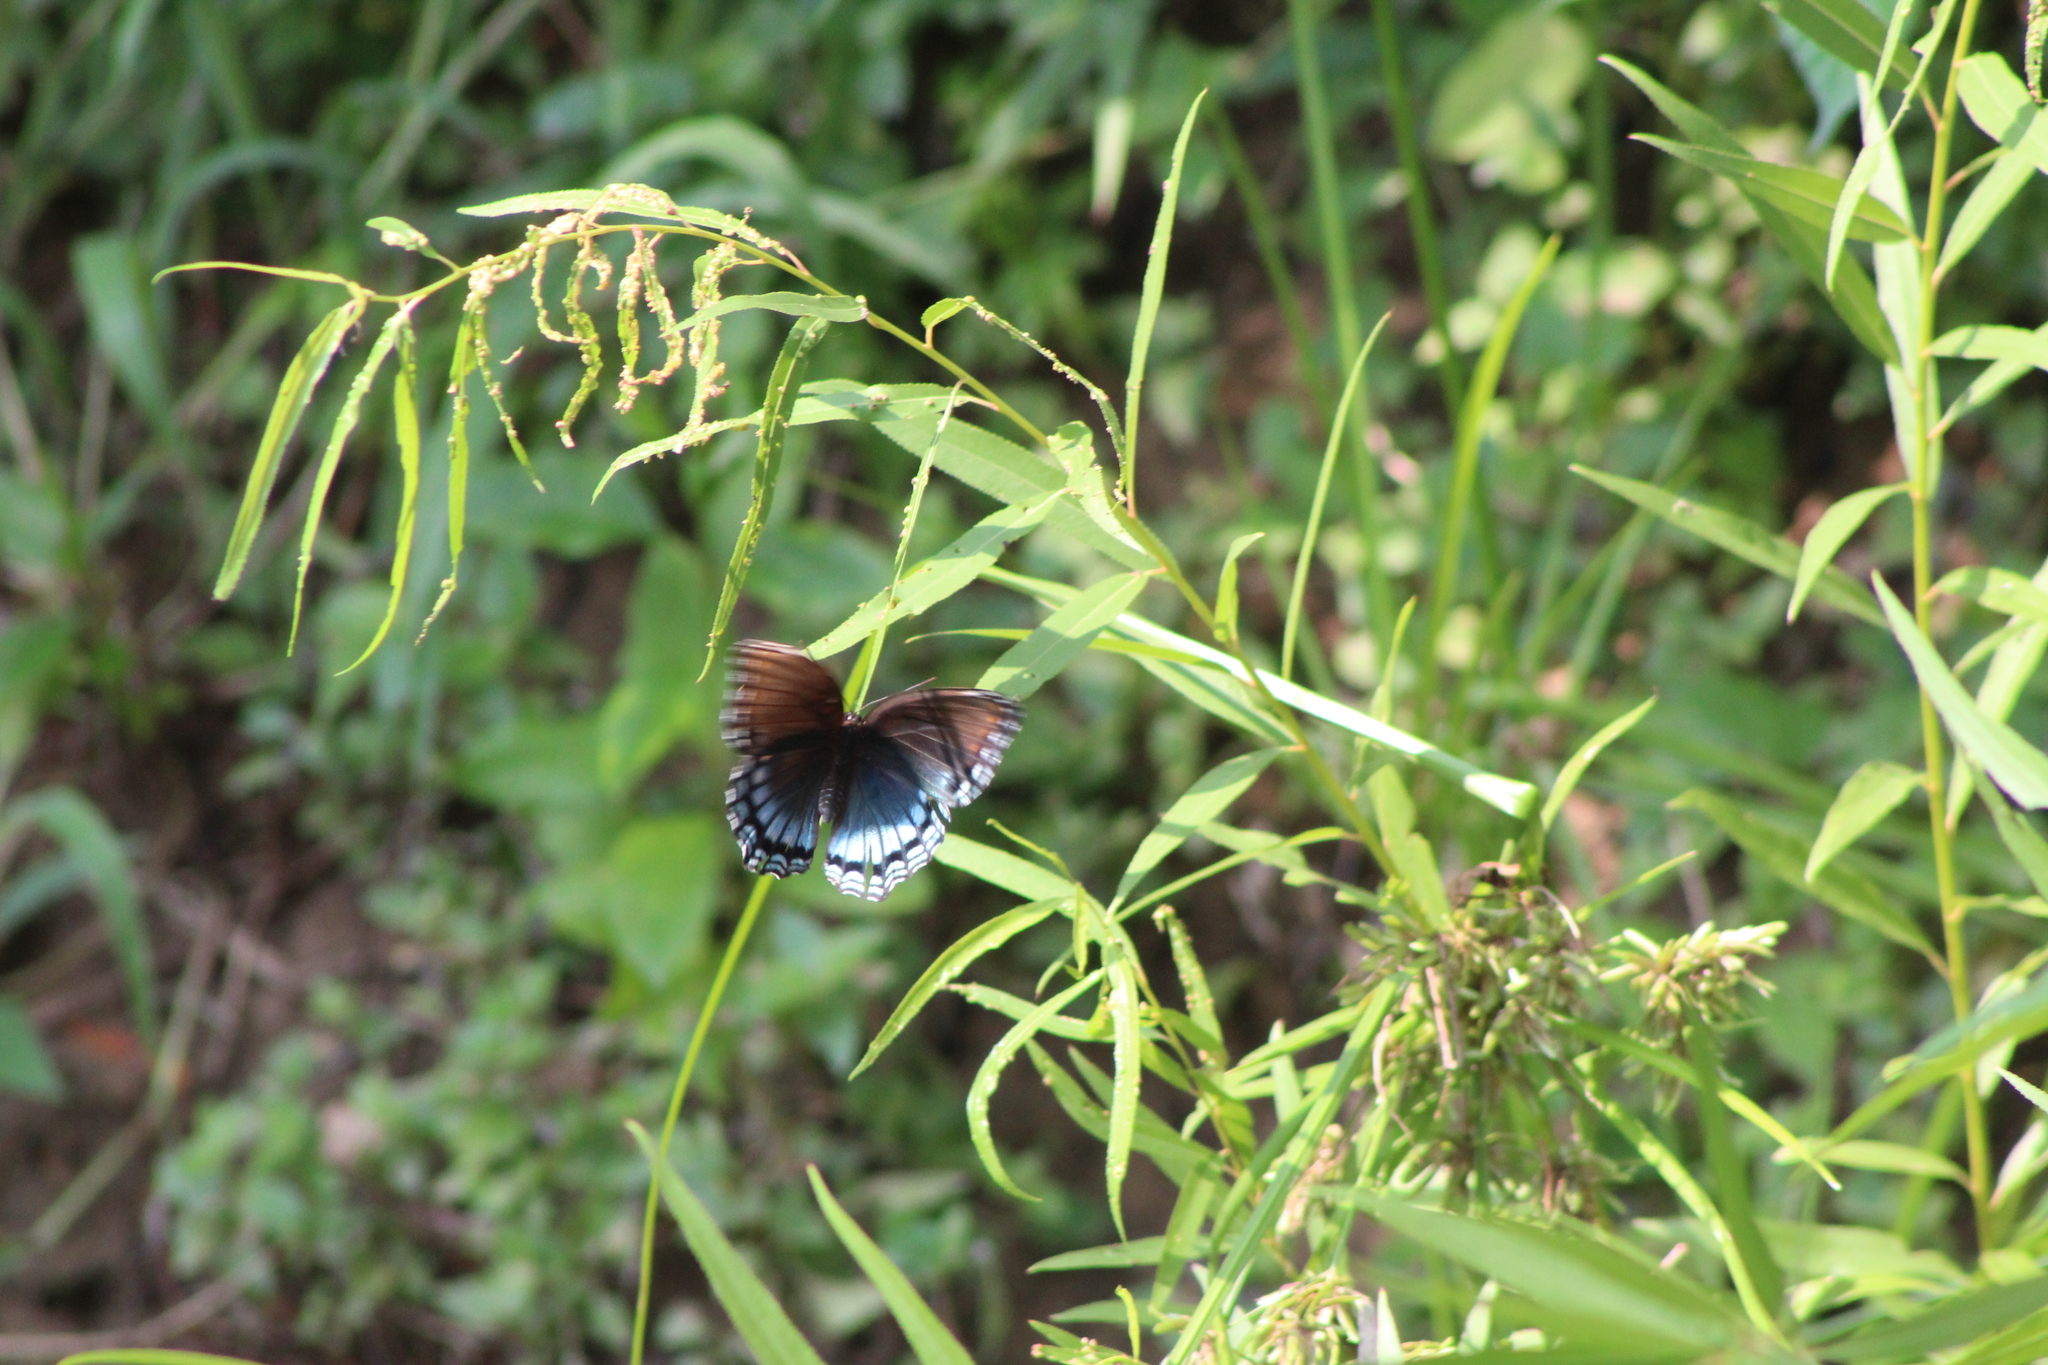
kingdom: Animalia
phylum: Arthropoda
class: Insecta
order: Lepidoptera
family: Nymphalidae
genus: Limenitis
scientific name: Limenitis arthemis
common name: Red-spotted admiral
